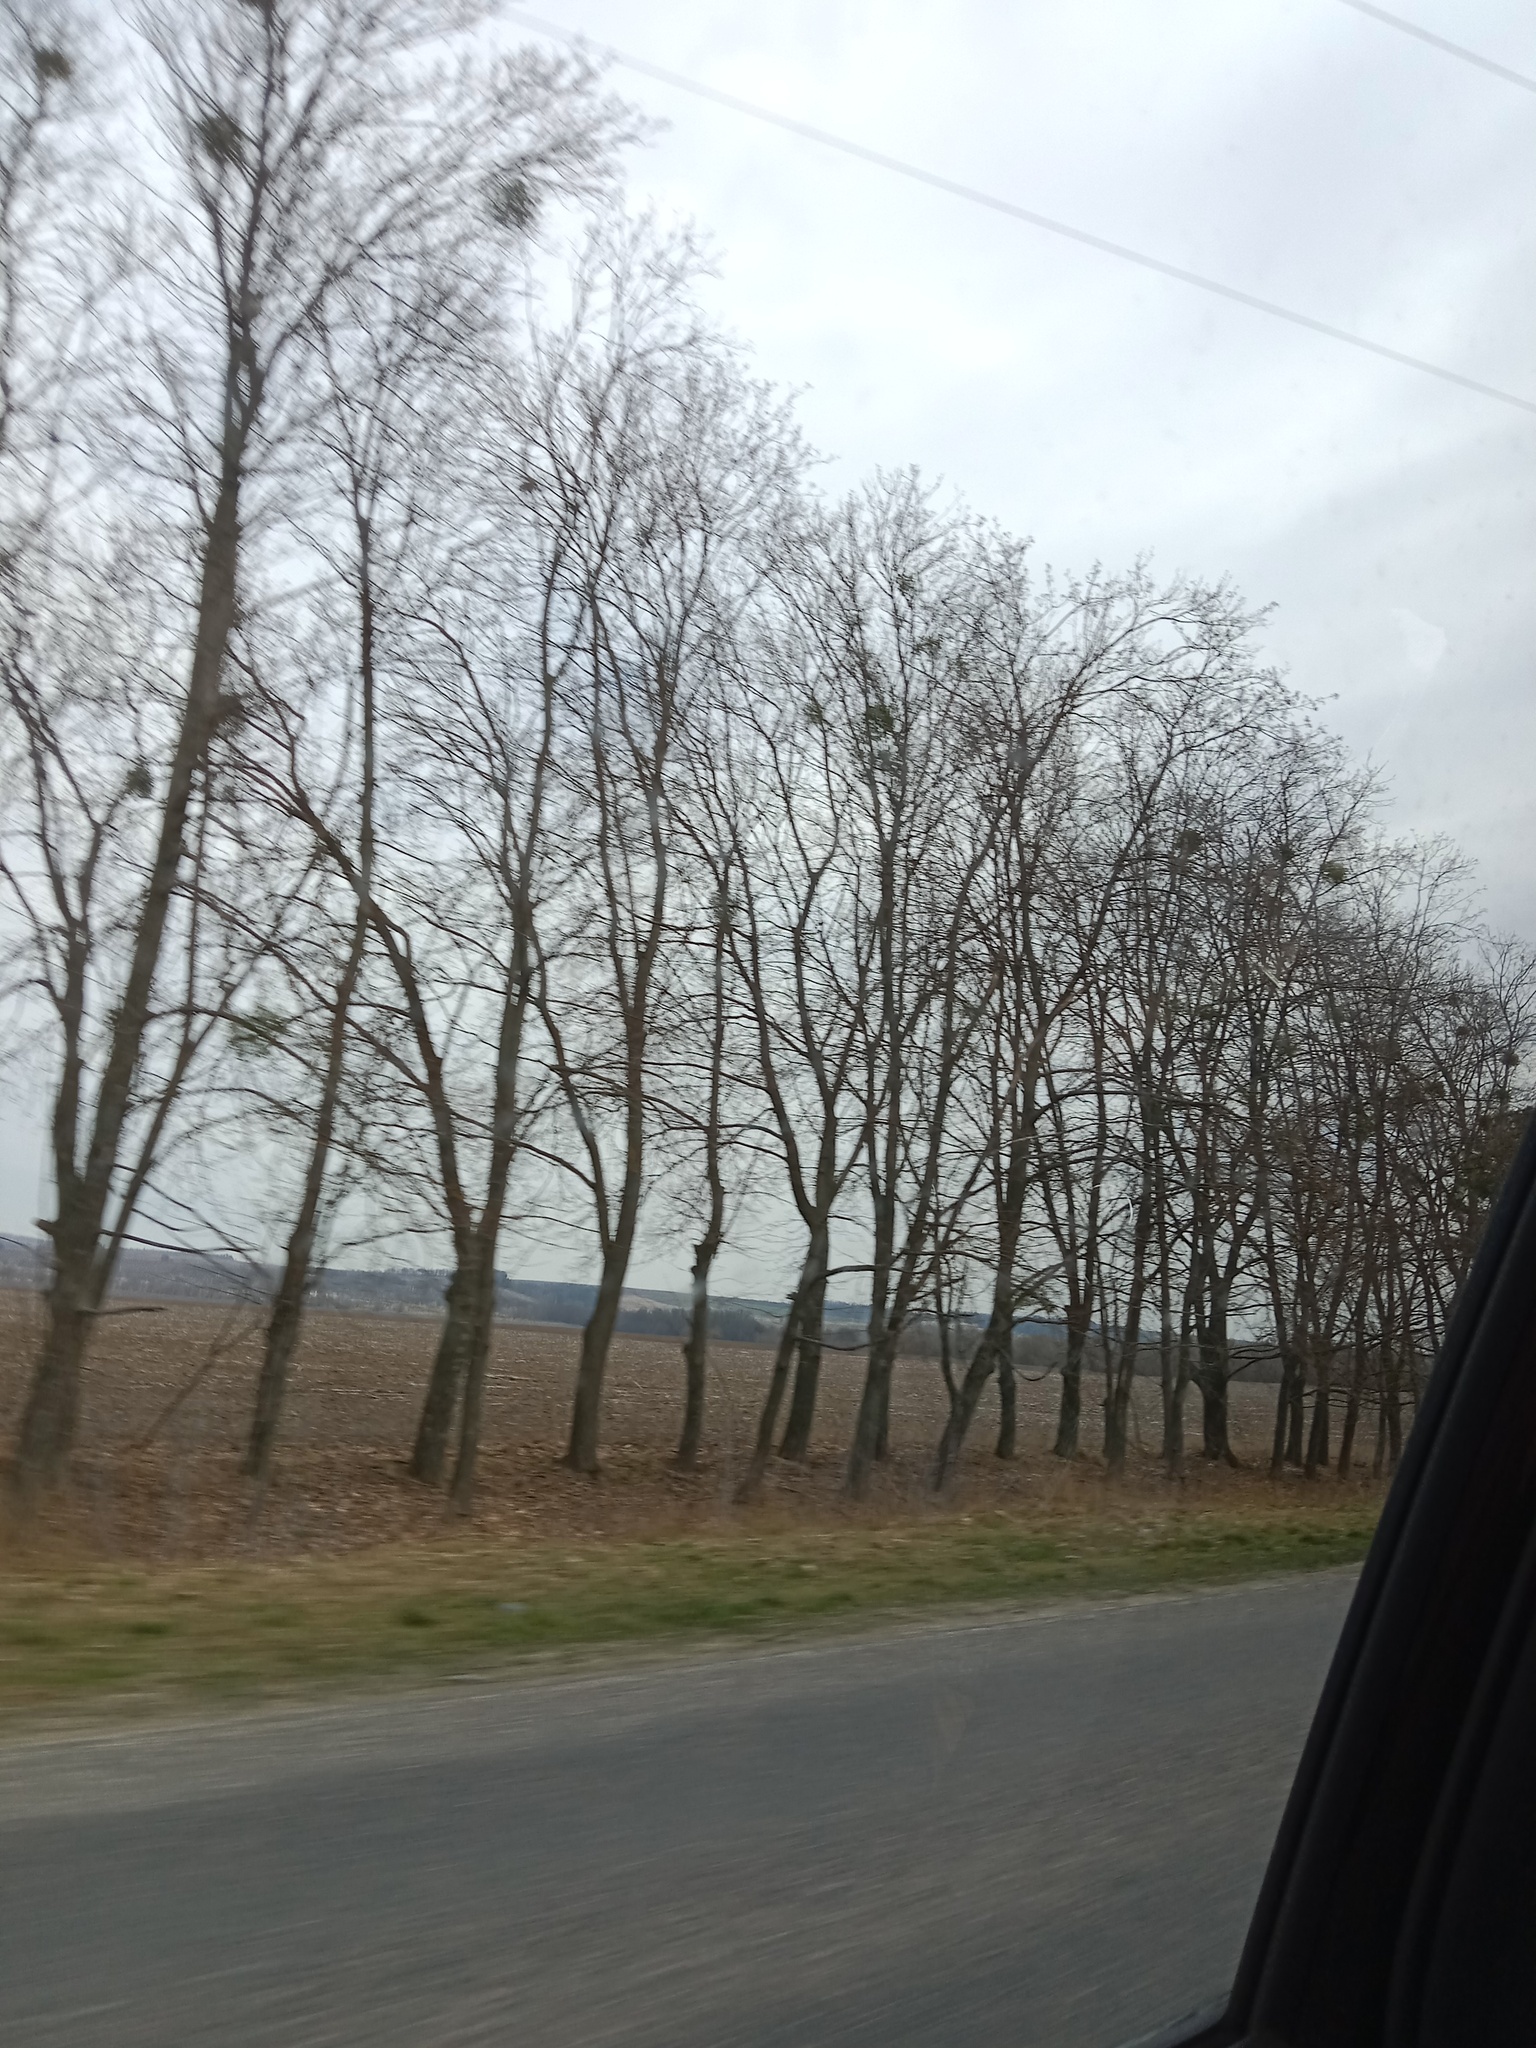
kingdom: Plantae
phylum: Tracheophyta
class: Magnoliopsida
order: Santalales
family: Viscaceae
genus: Viscum
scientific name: Viscum album
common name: Mistletoe
